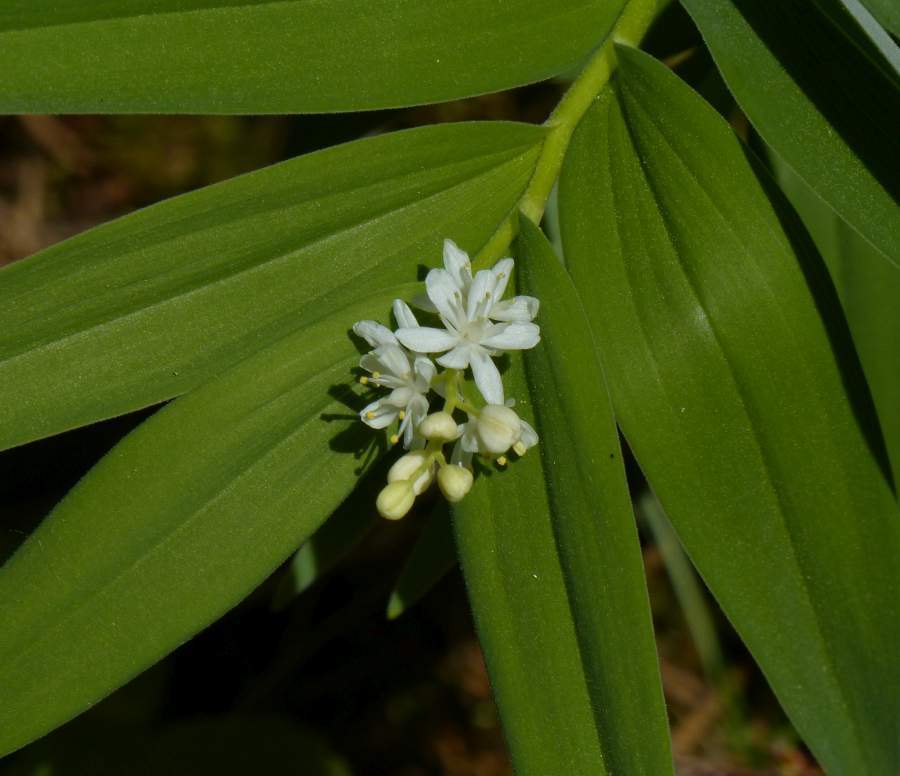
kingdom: Plantae
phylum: Tracheophyta
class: Liliopsida
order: Asparagales
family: Asparagaceae
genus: Maianthemum
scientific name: Maianthemum stellatum
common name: Little false solomon's seal
